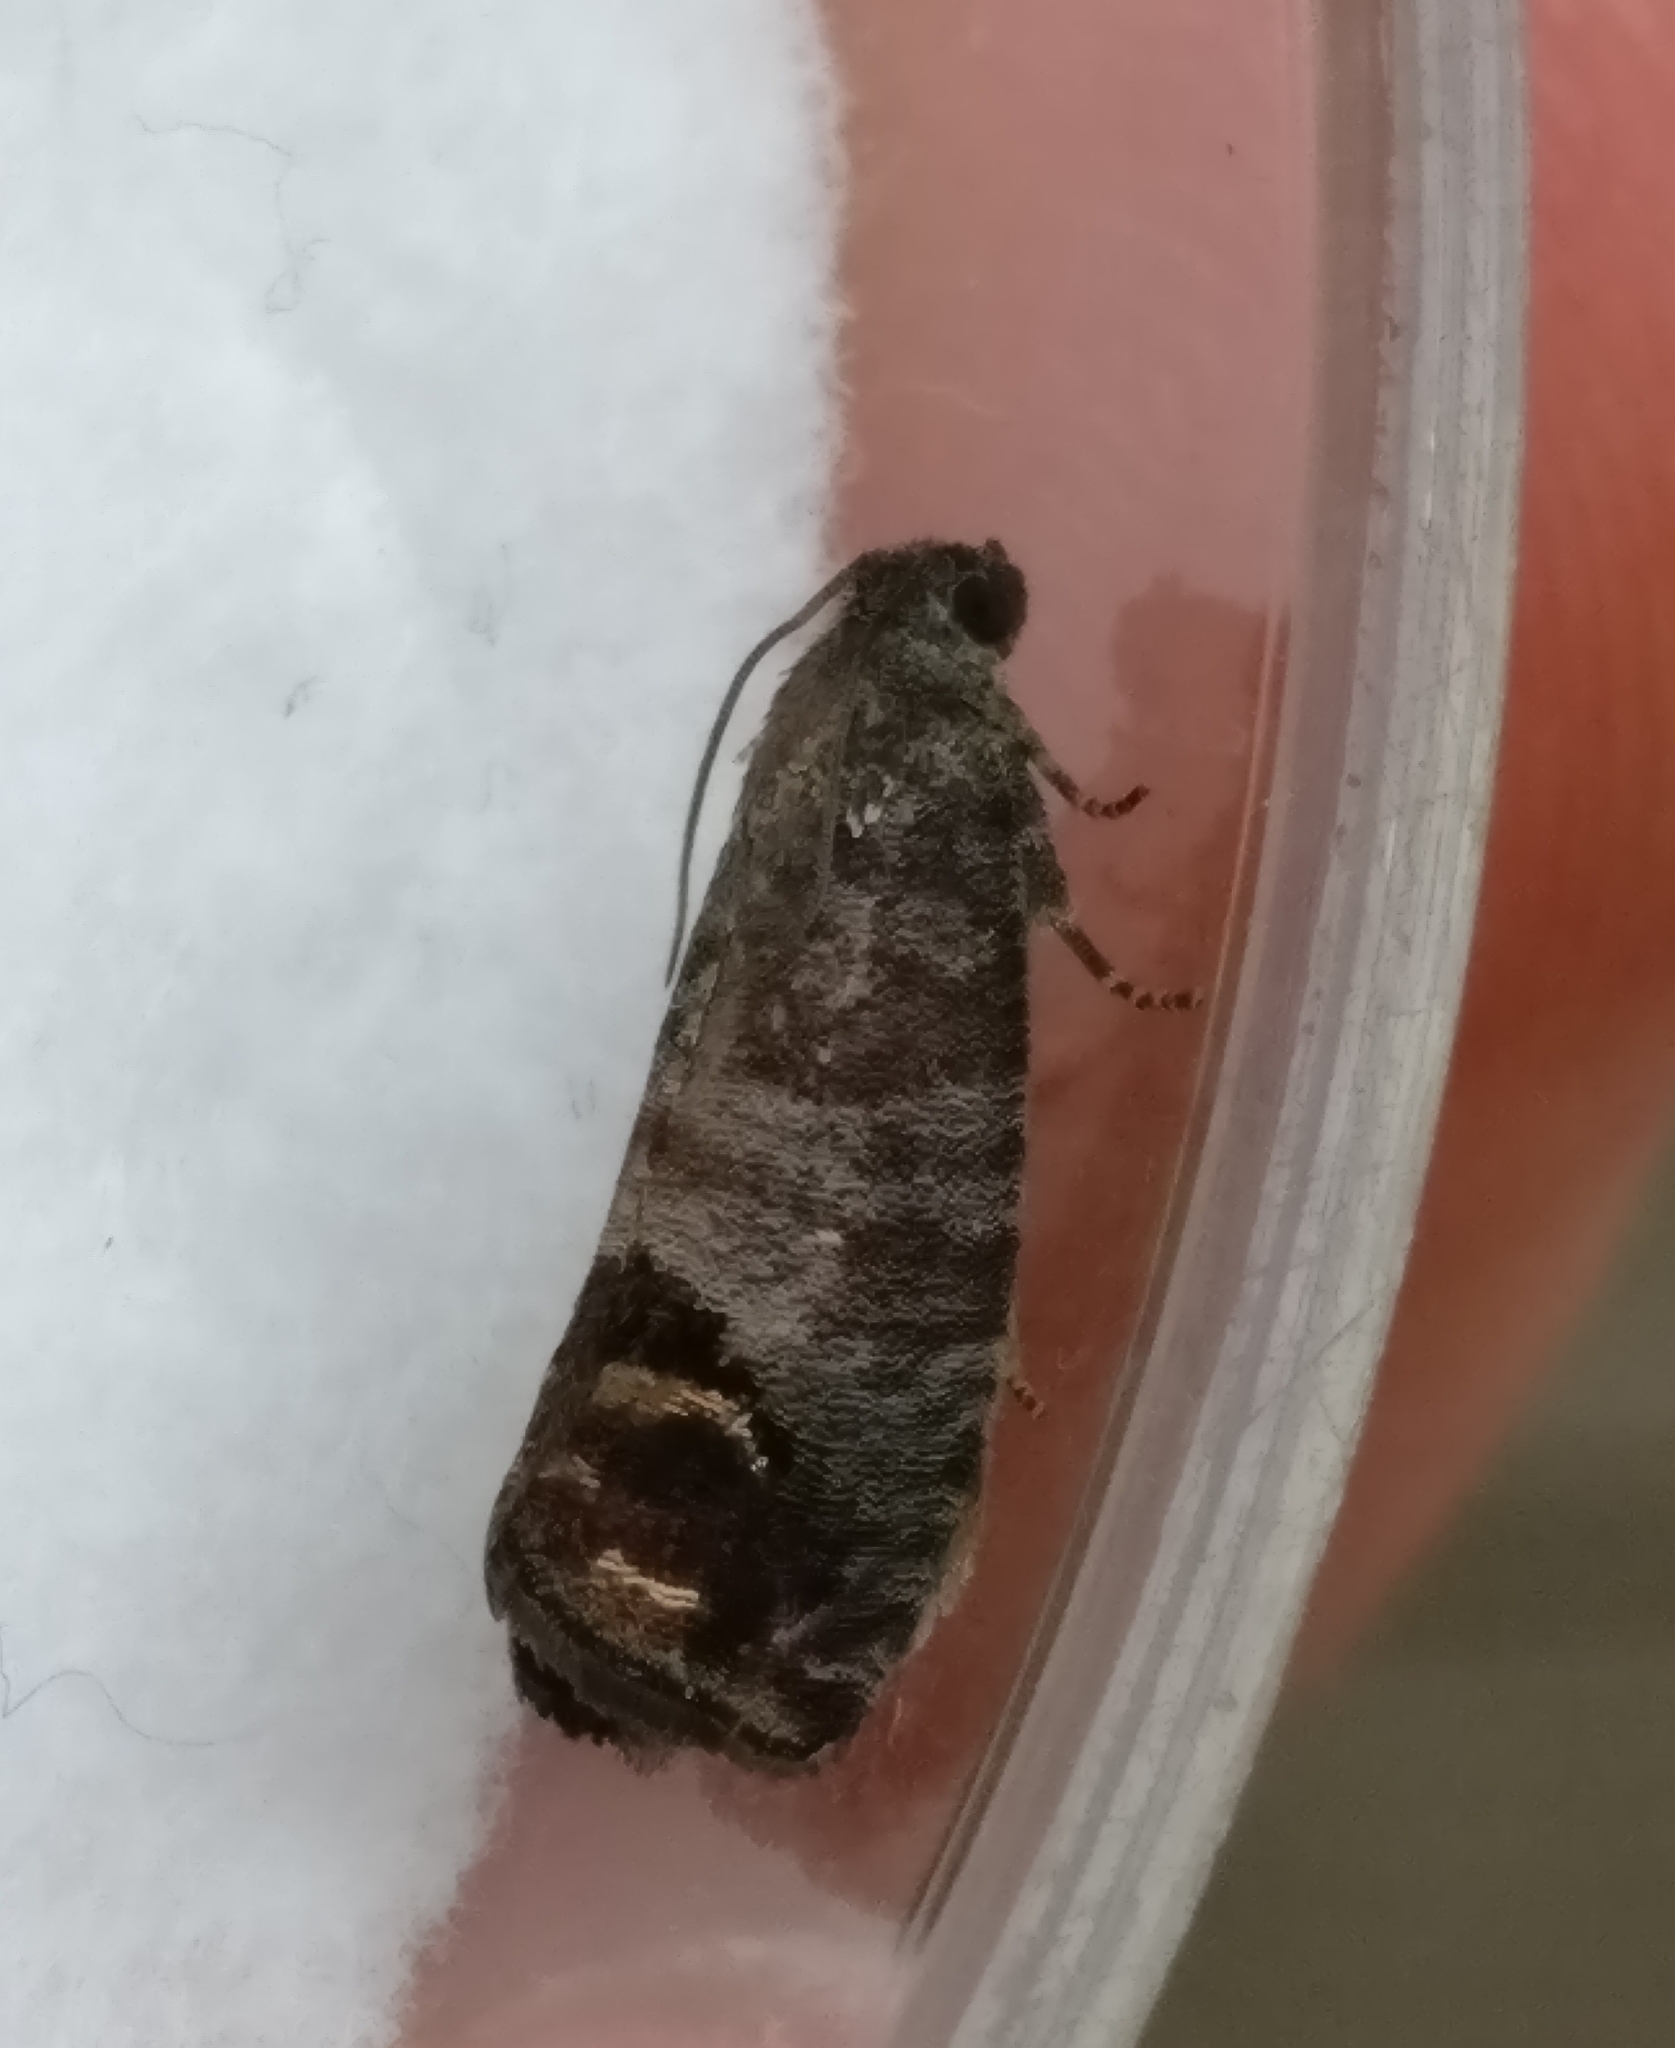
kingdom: Animalia
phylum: Arthropoda
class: Insecta
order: Lepidoptera
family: Tortricidae
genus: Cydia
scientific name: Cydia pomonella
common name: Codling moth
